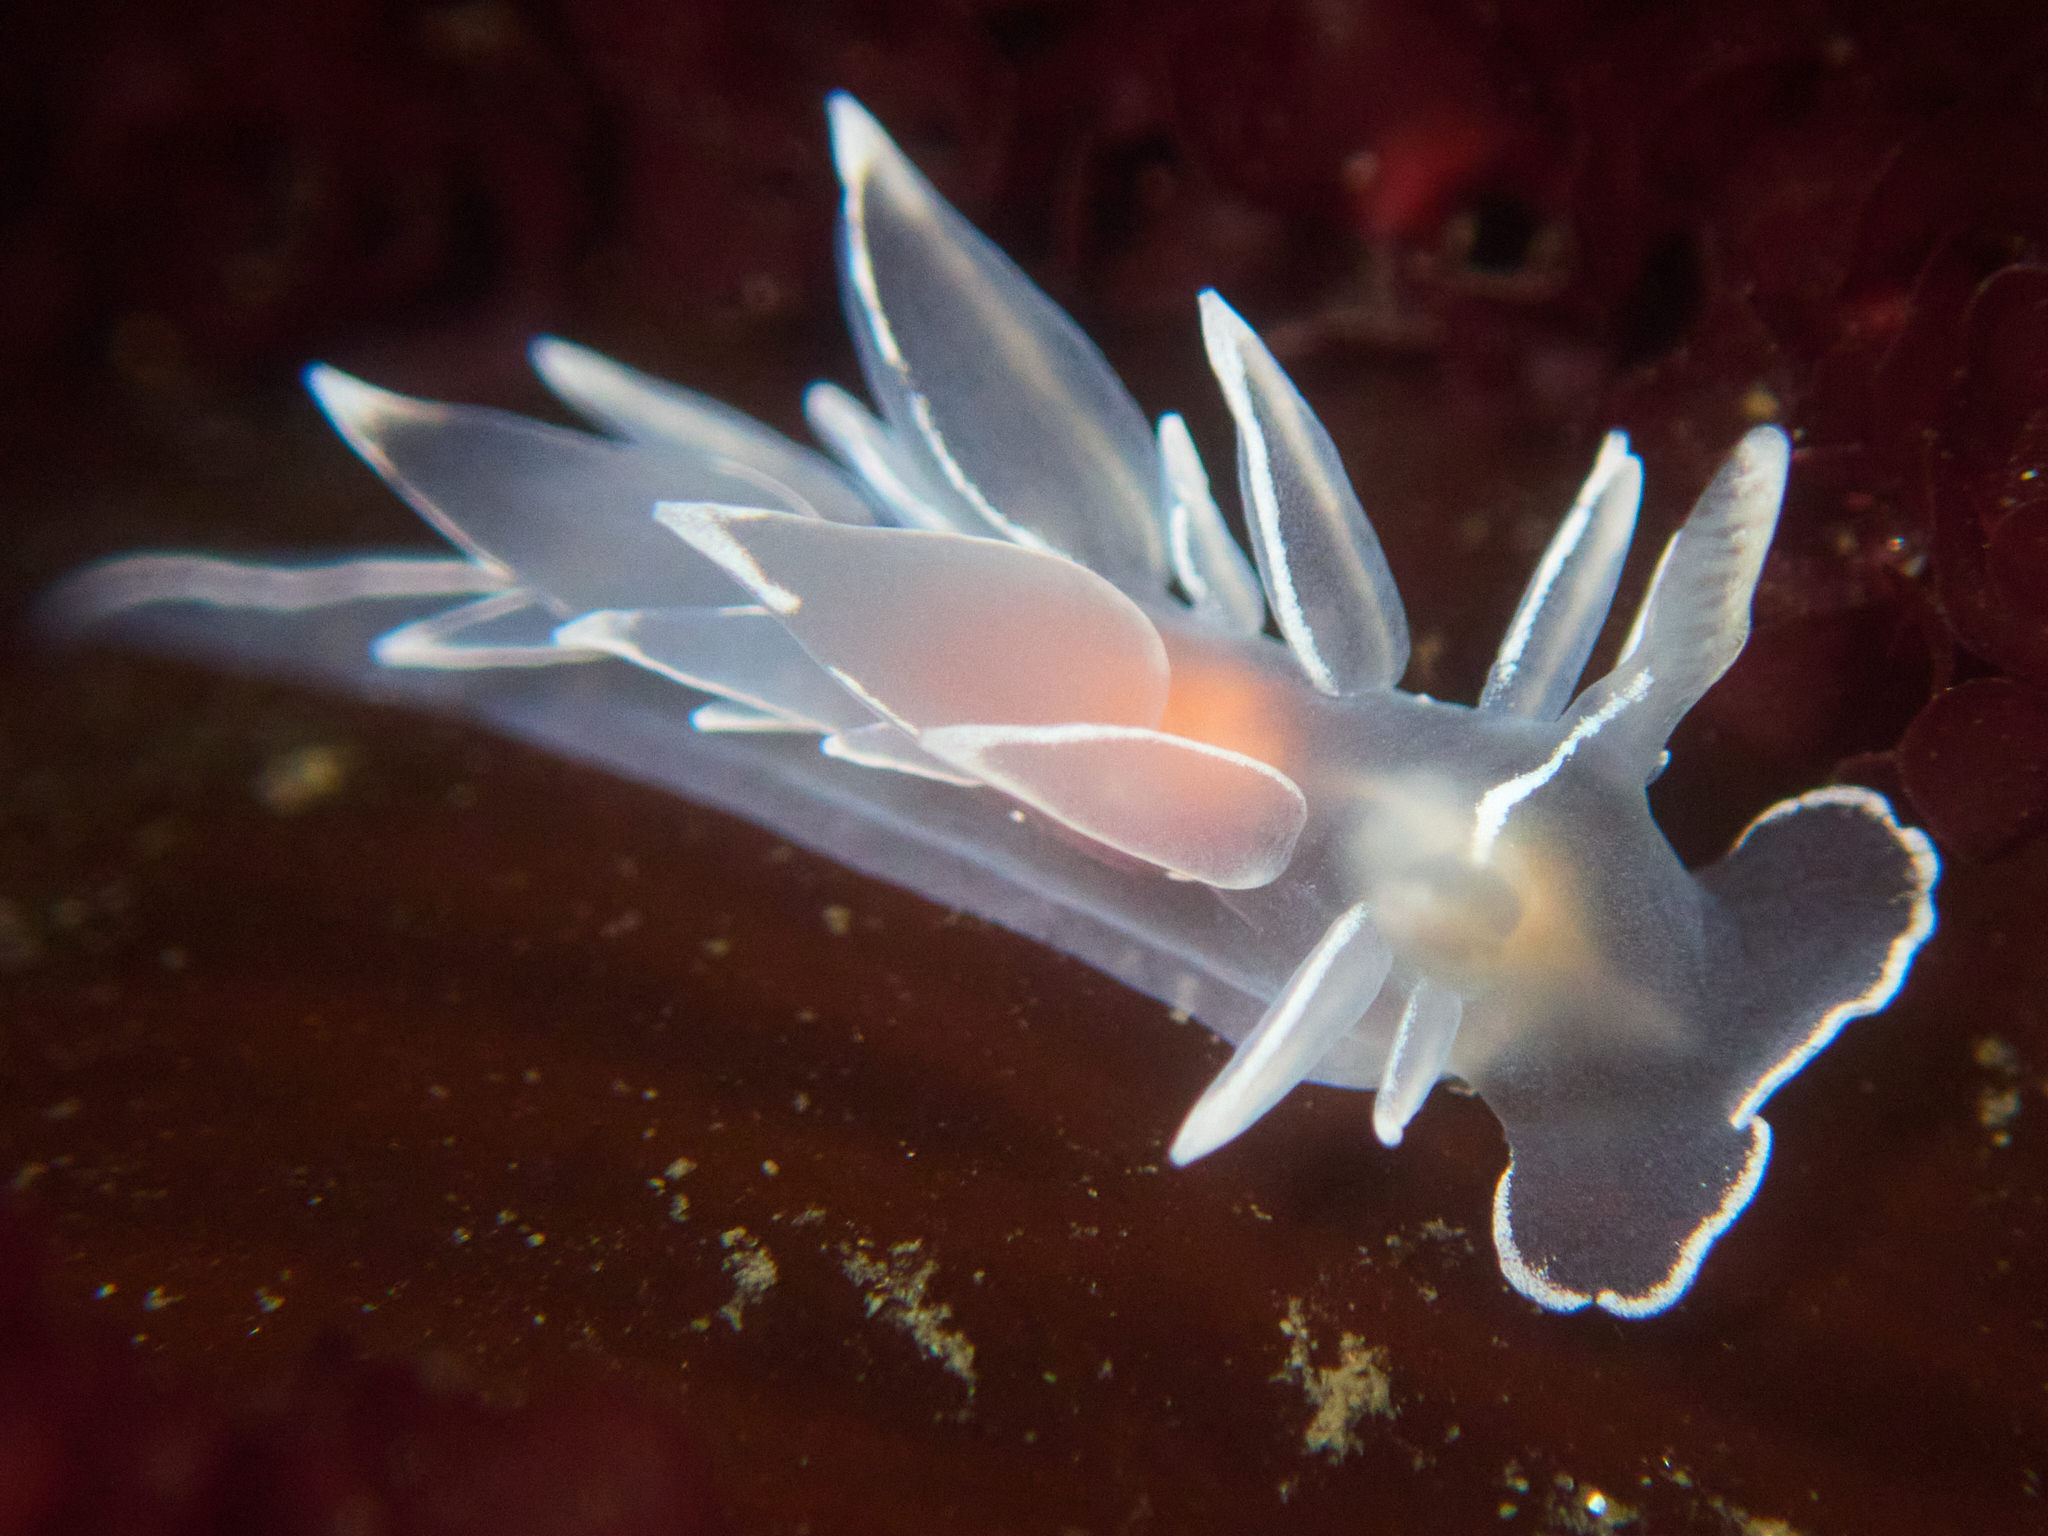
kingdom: Animalia
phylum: Mollusca
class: Gastropoda
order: Nudibranchia
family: Dironidae
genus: Dirona
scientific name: Dirona albolineata
